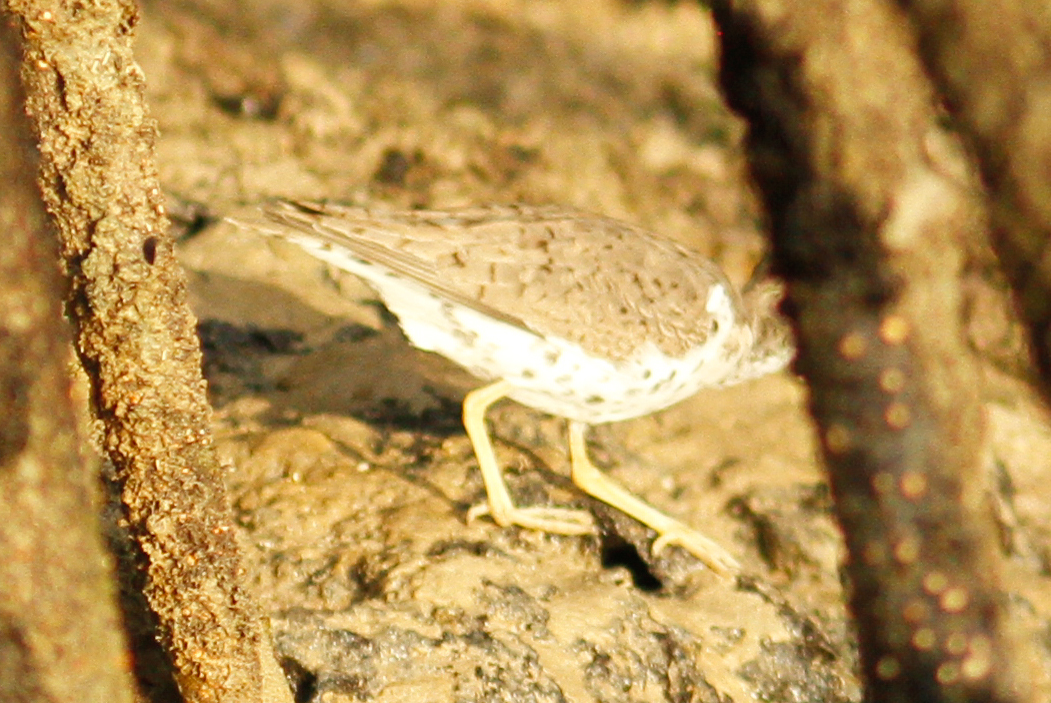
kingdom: Animalia
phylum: Chordata
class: Aves
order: Charadriiformes
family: Scolopacidae
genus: Actitis
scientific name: Actitis macularius
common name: Spotted sandpiper
